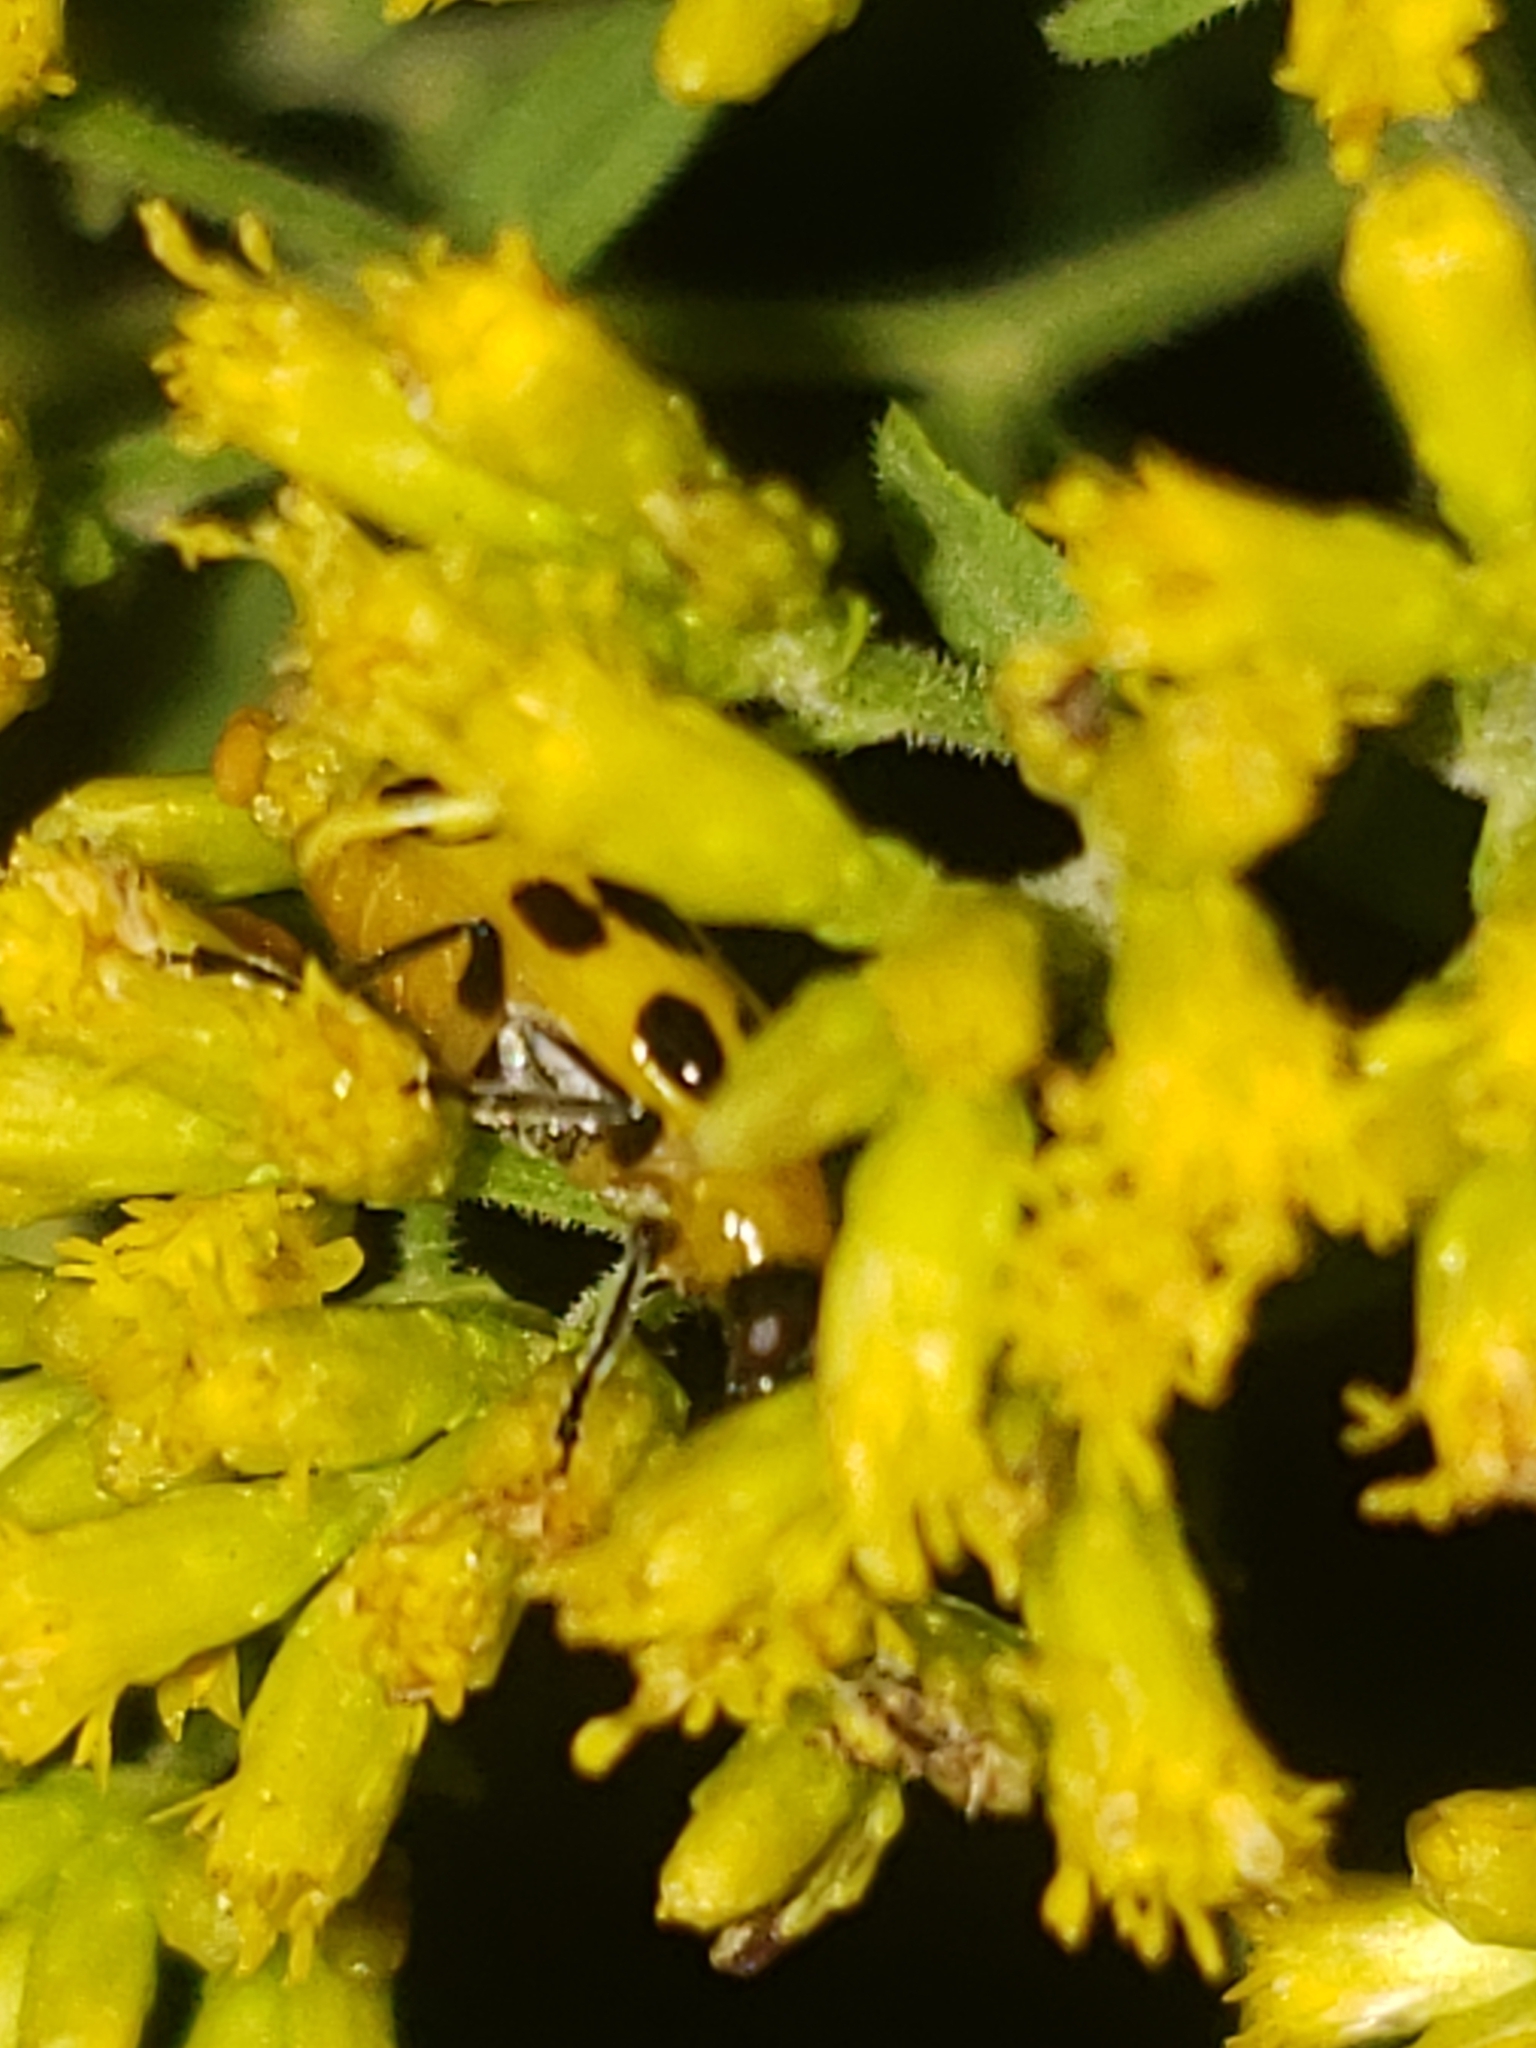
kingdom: Animalia
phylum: Arthropoda
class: Insecta
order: Coleoptera
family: Chrysomelidae
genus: Diabrotica
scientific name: Diabrotica undecimpunctata
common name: Spotted cucumber beetle
